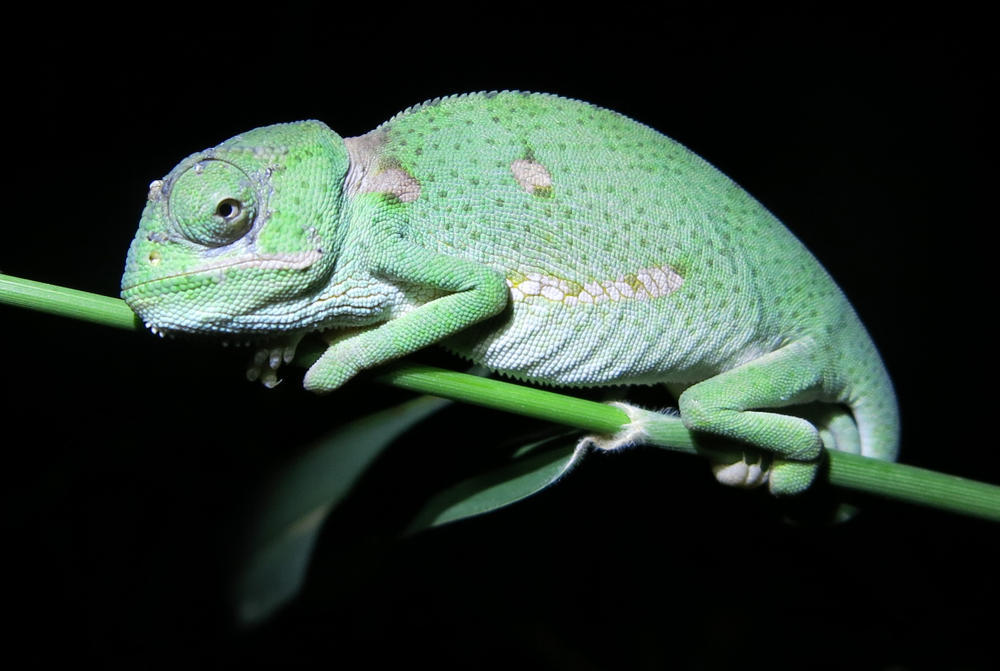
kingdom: Animalia
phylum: Chordata
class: Squamata
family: Chamaeleonidae
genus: Chamaeleo
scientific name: Chamaeleo dilepis
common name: Flapneck chameleon
